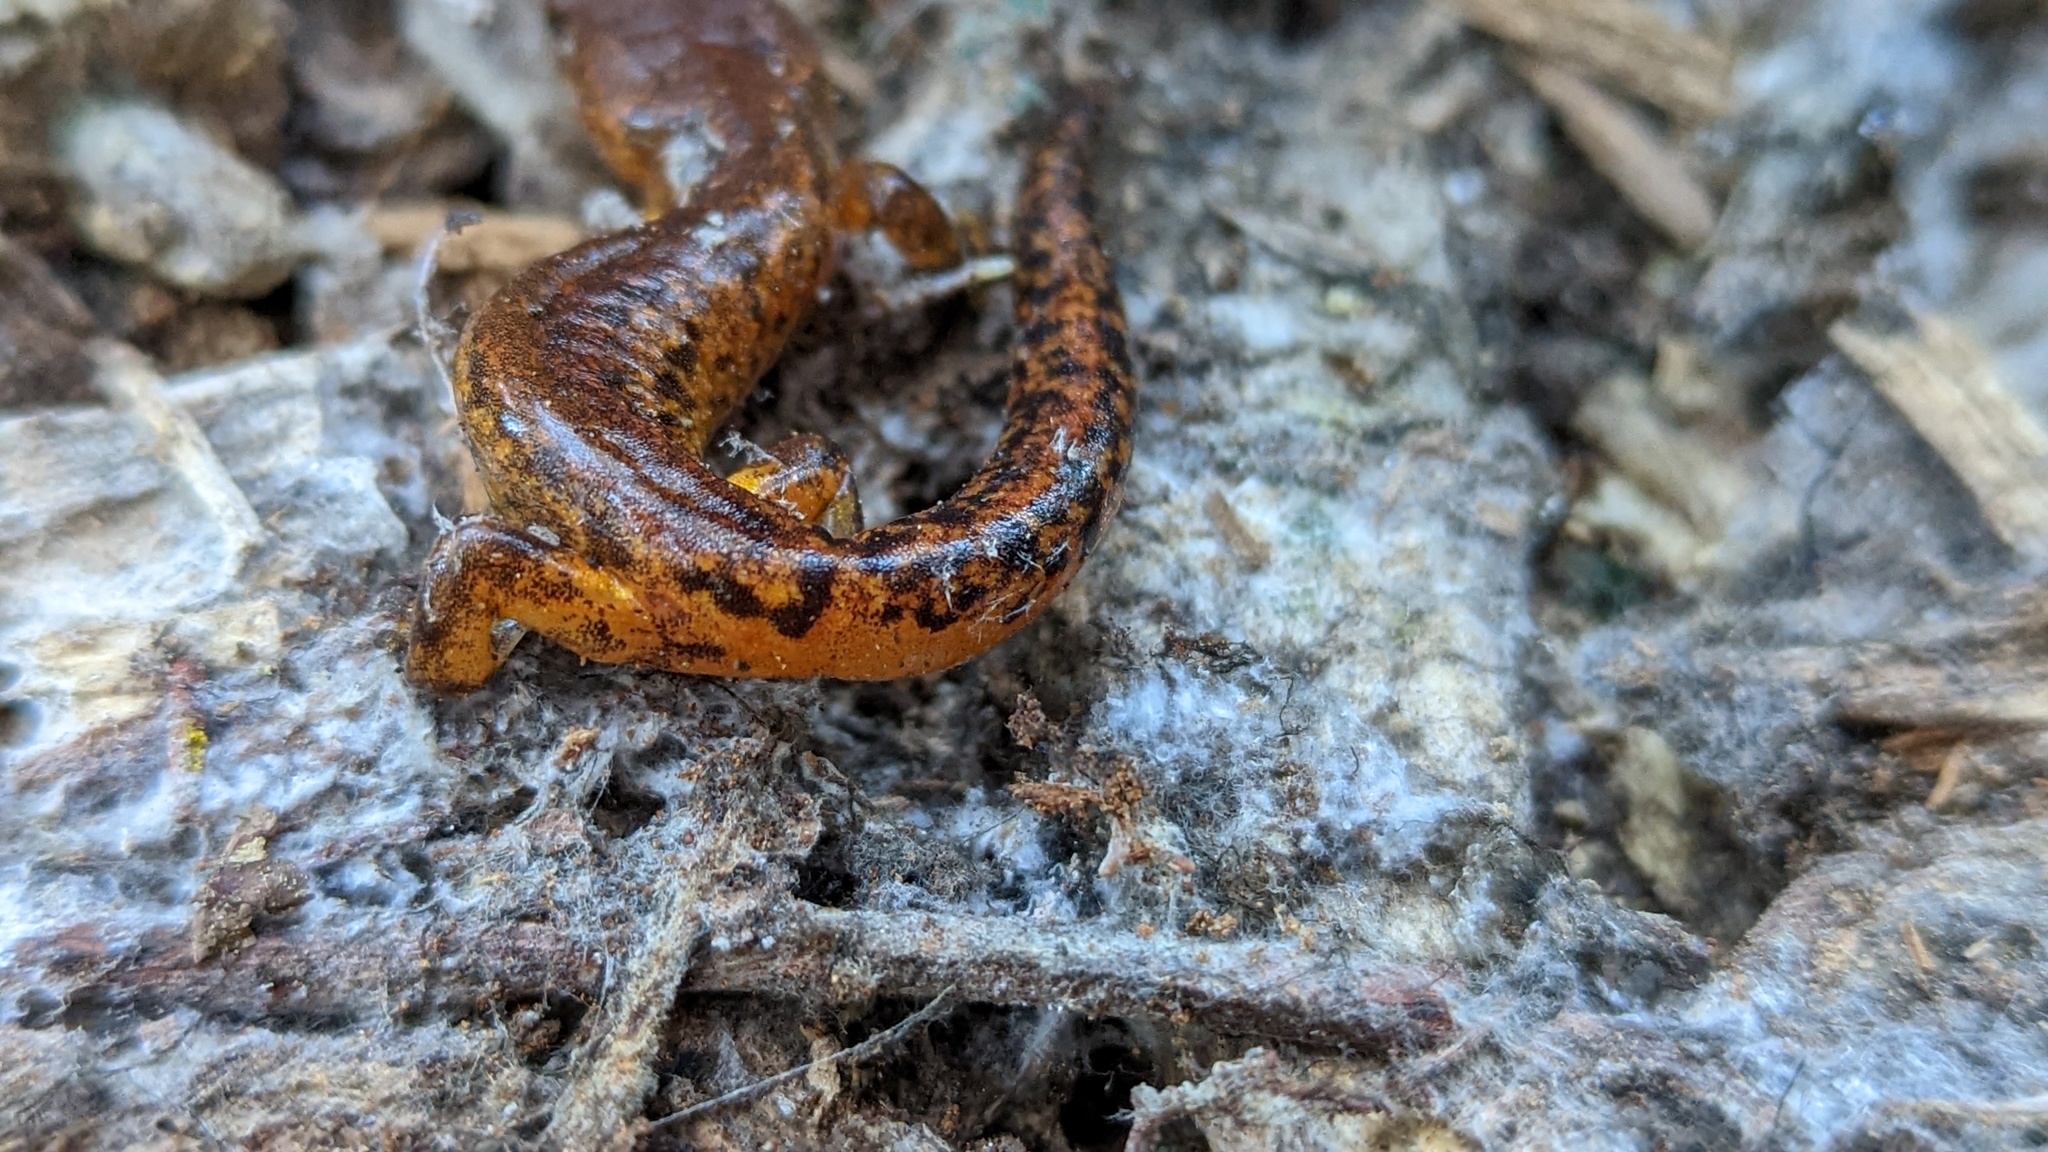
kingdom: Animalia
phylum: Chordata
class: Amphibia
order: Caudata
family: Plethodontidae
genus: Ensatina
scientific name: Ensatina eschscholtzii
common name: Ensatina
